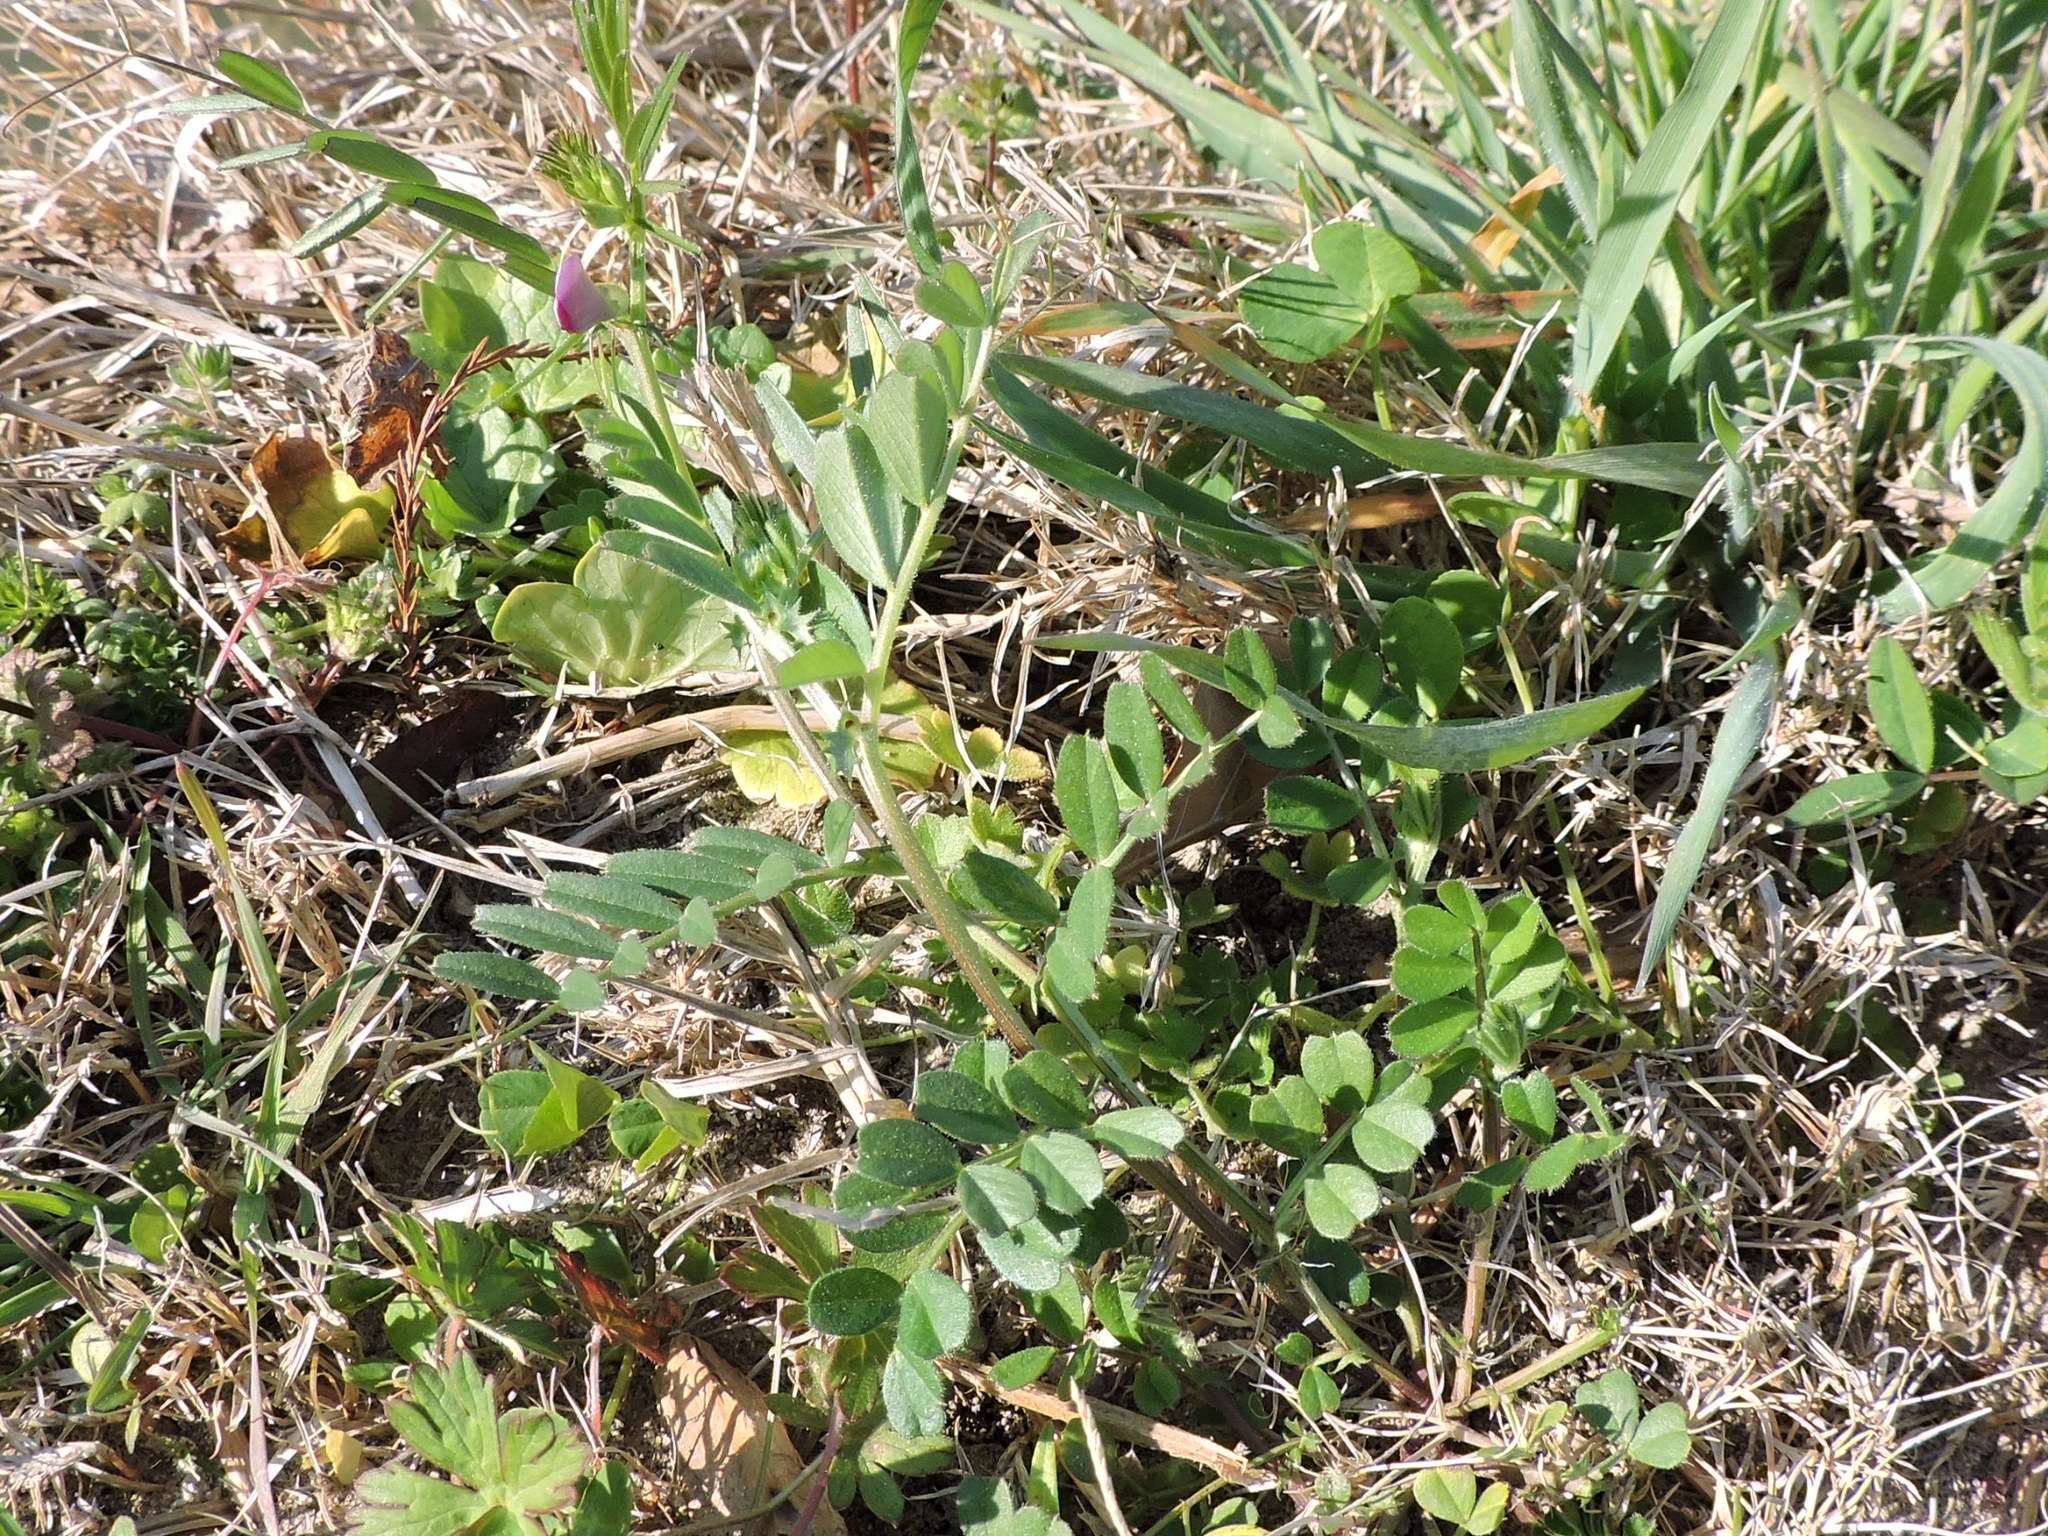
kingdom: Plantae
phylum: Tracheophyta
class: Magnoliopsida
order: Fabales
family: Fabaceae
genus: Vicia
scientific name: Vicia sativa
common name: Garden vetch
